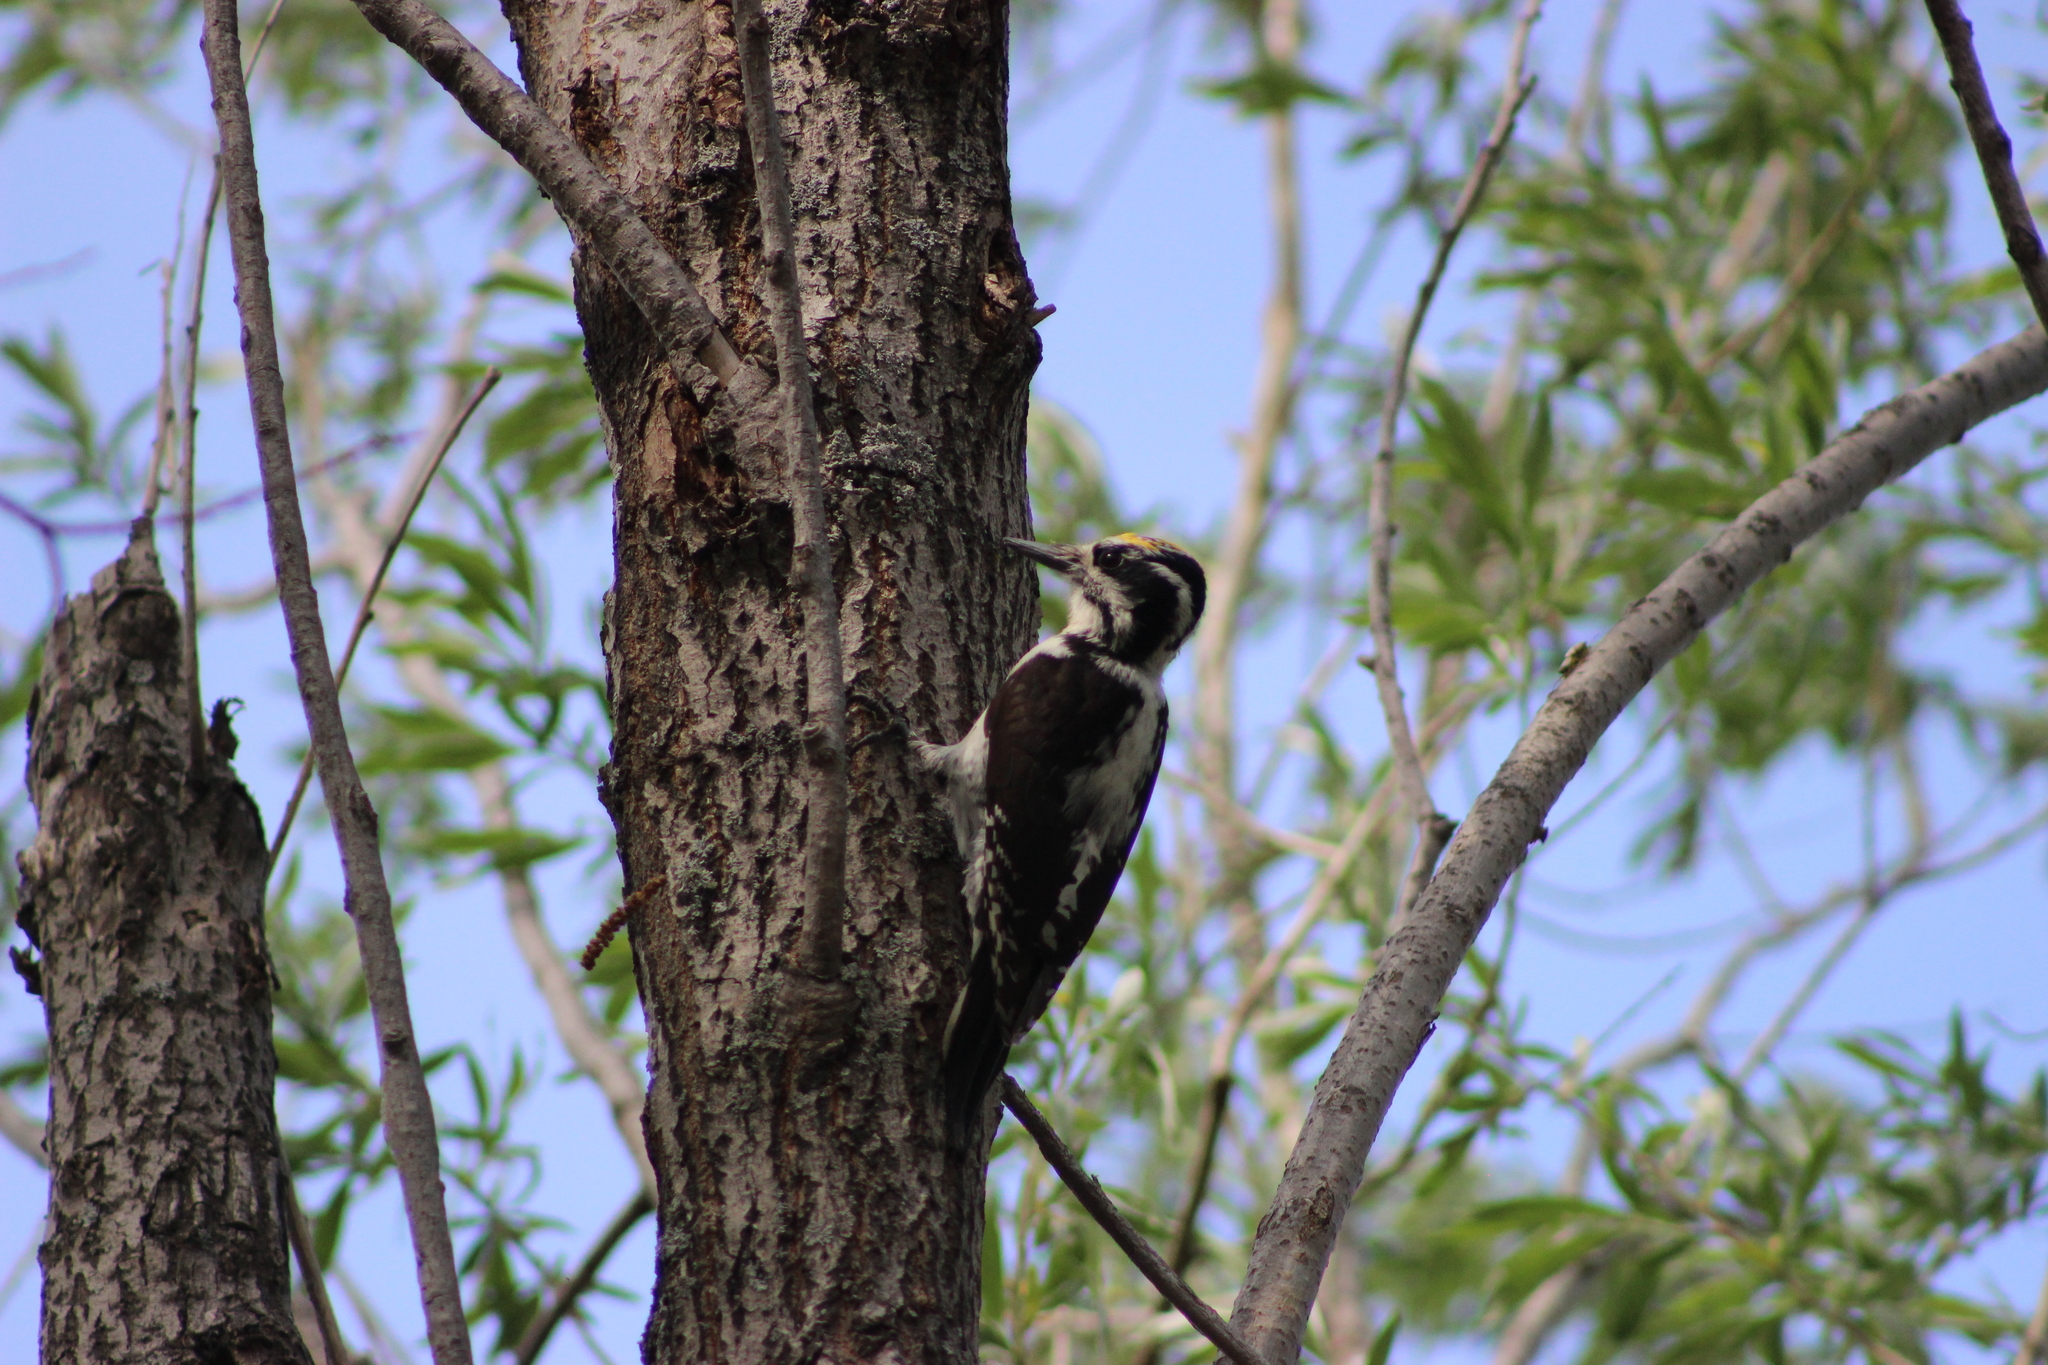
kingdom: Animalia
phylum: Chordata
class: Aves
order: Piciformes
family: Picidae
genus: Picoides
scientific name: Picoides tridactylus
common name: Eurasian three-toed woodpecker
